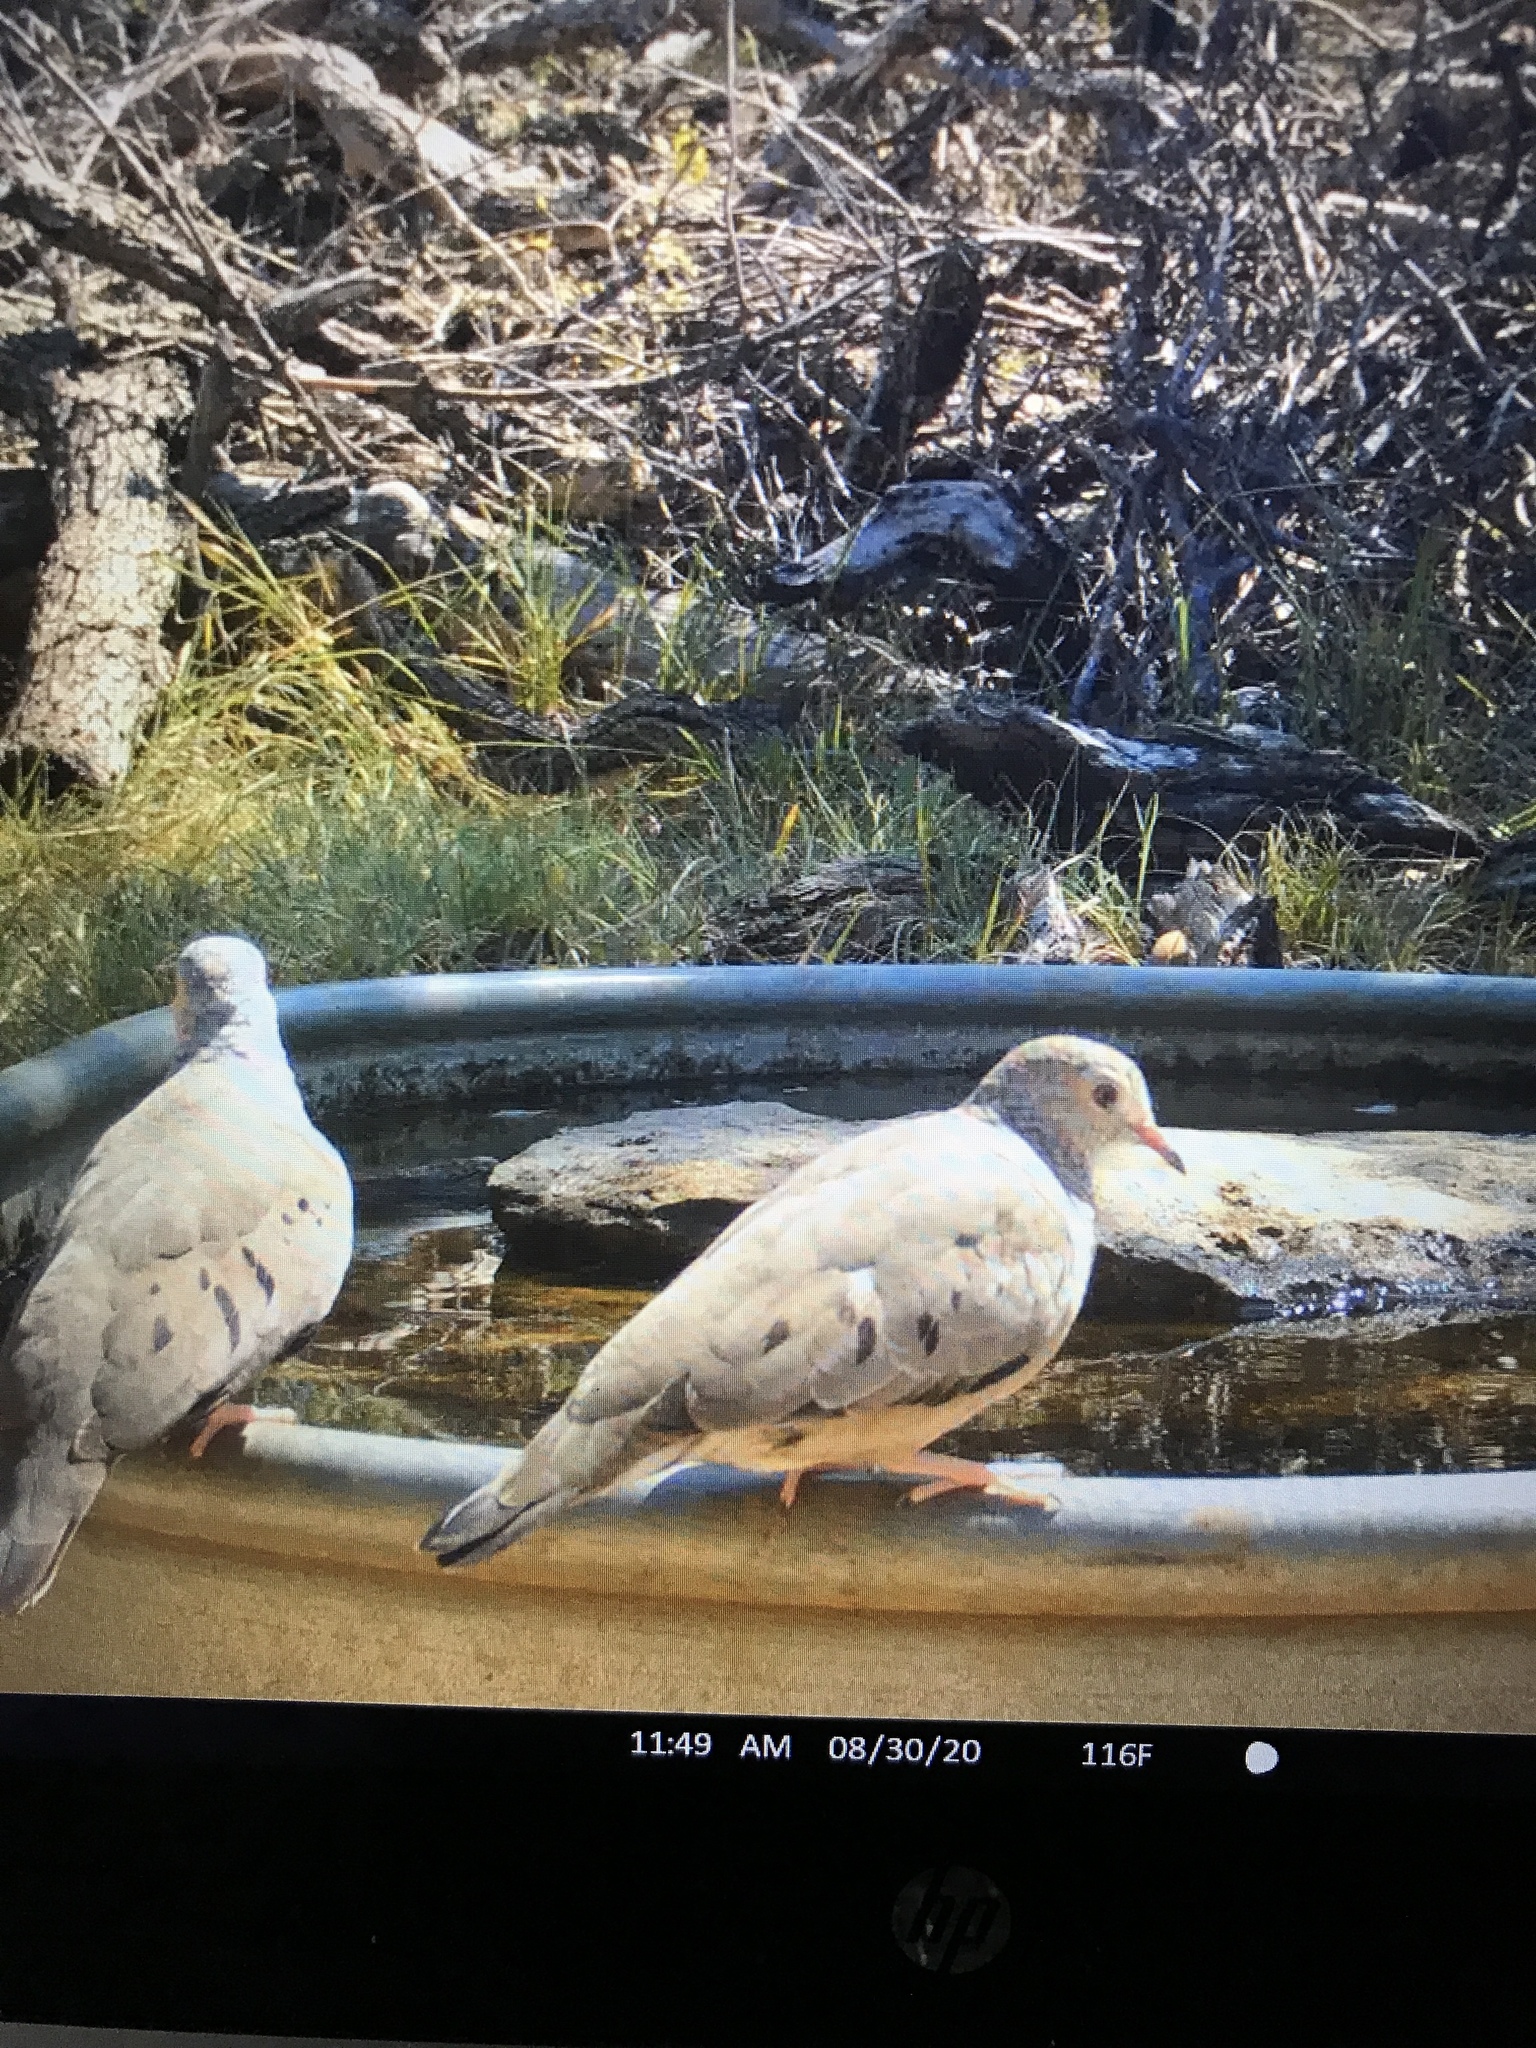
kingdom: Animalia
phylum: Chordata
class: Aves
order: Columbiformes
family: Columbidae
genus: Columbina
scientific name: Columbina passerina
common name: Common ground-dove
